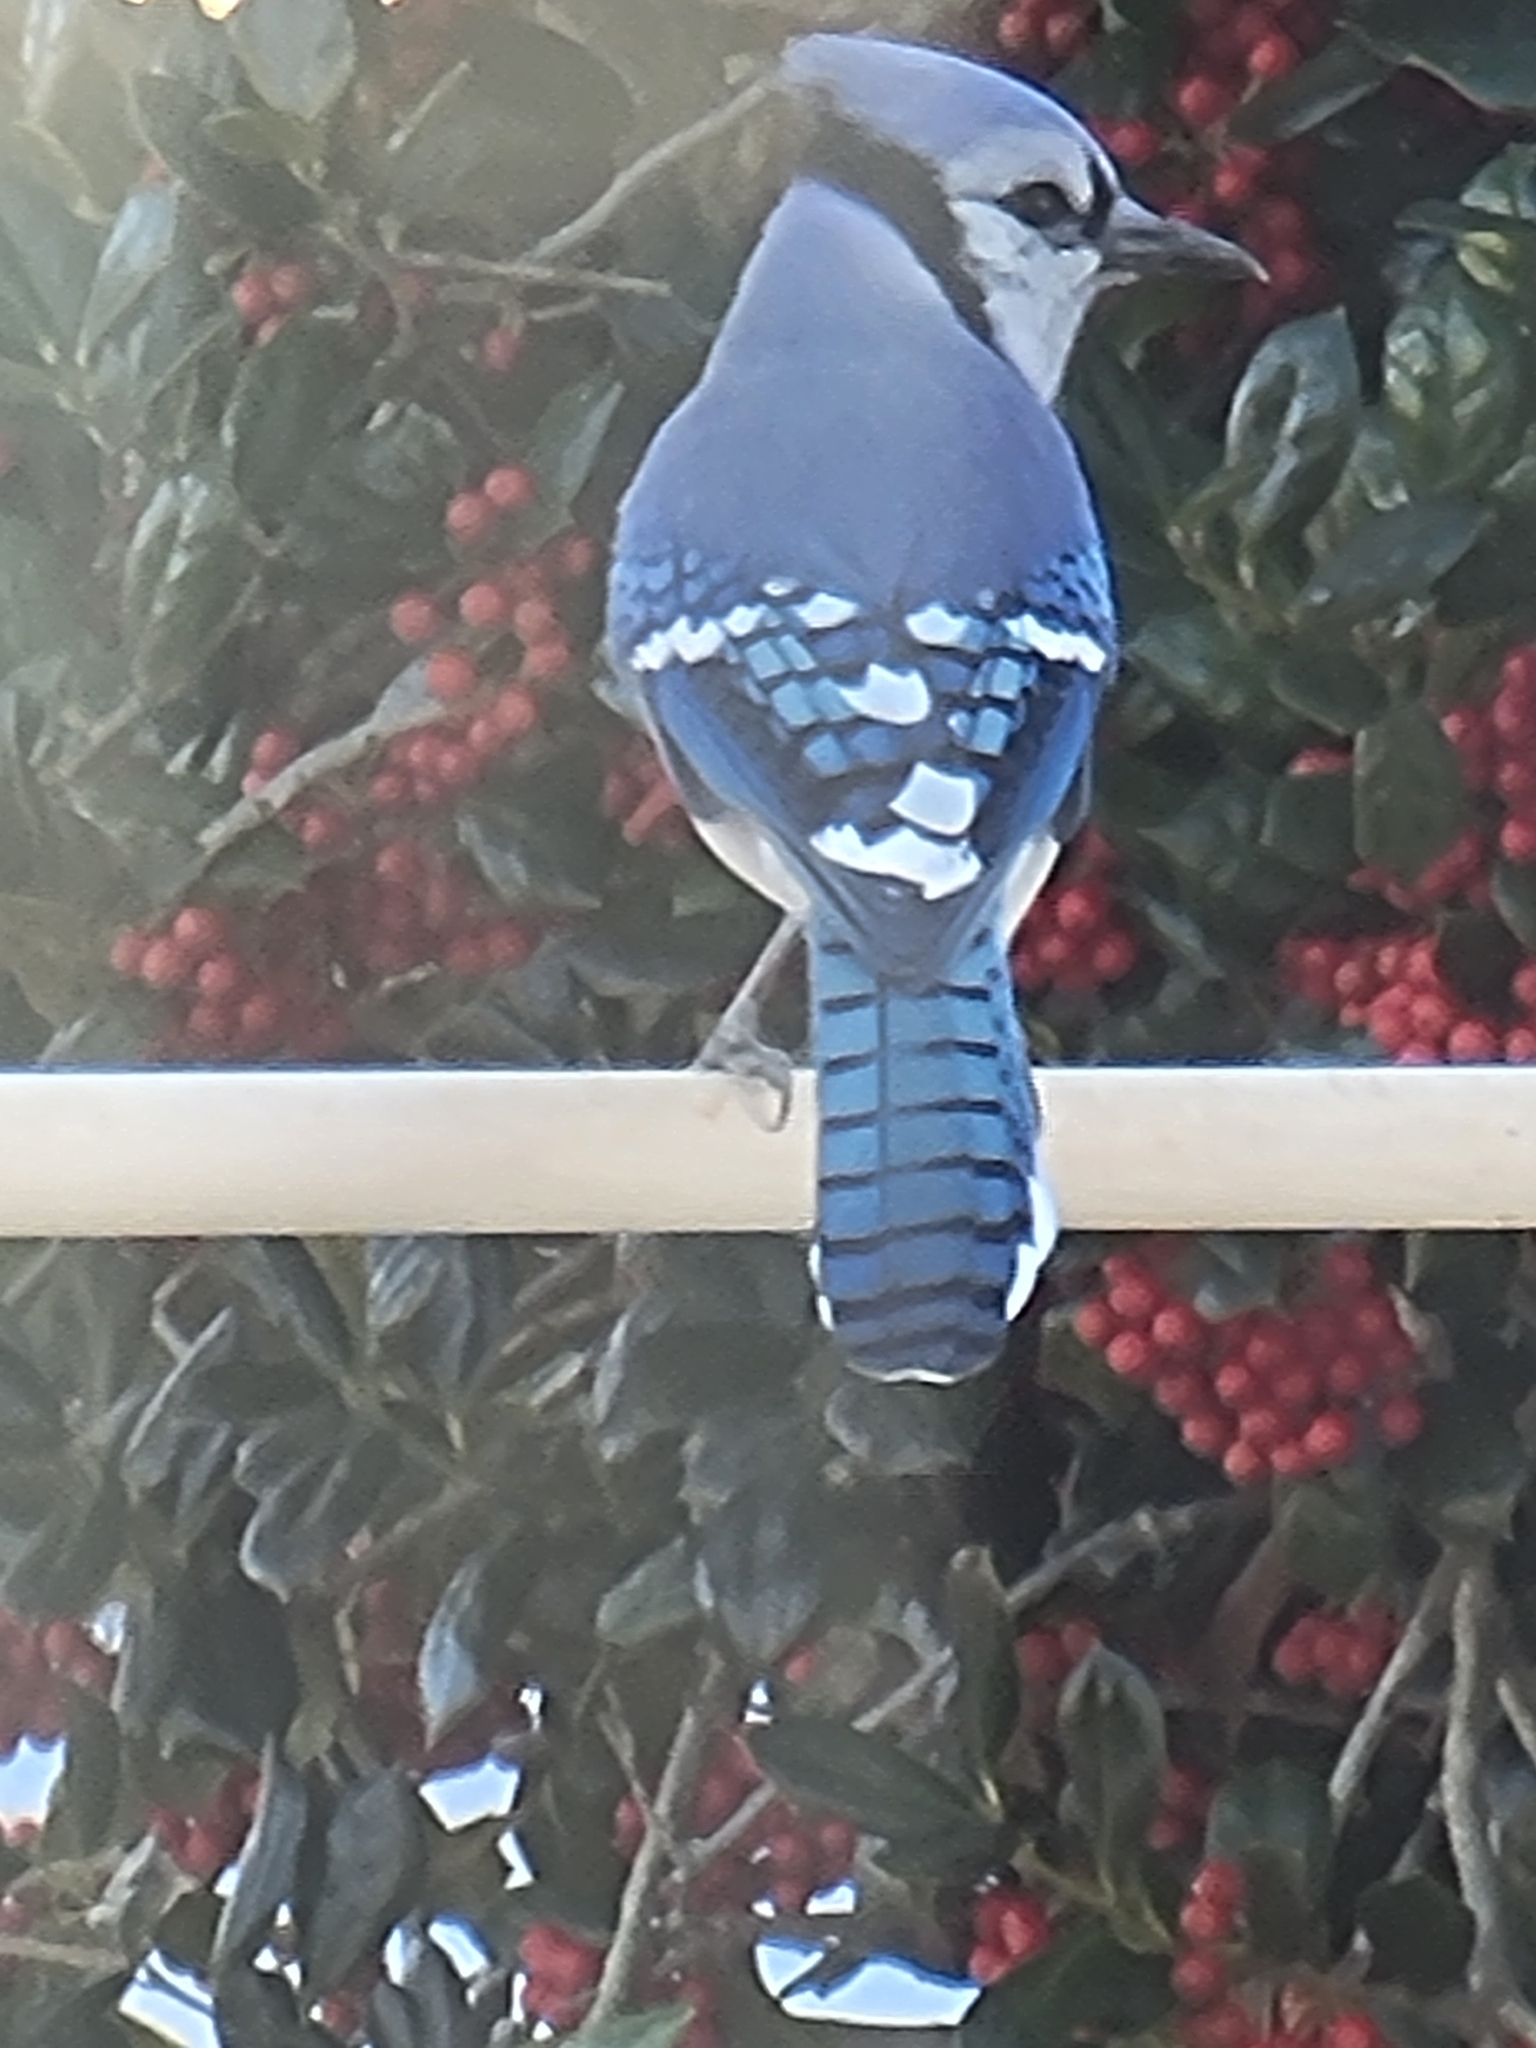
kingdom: Animalia
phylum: Chordata
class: Aves
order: Passeriformes
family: Corvidae
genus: Cyanocitta
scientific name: Cyanocitta cristata
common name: Blue jay
